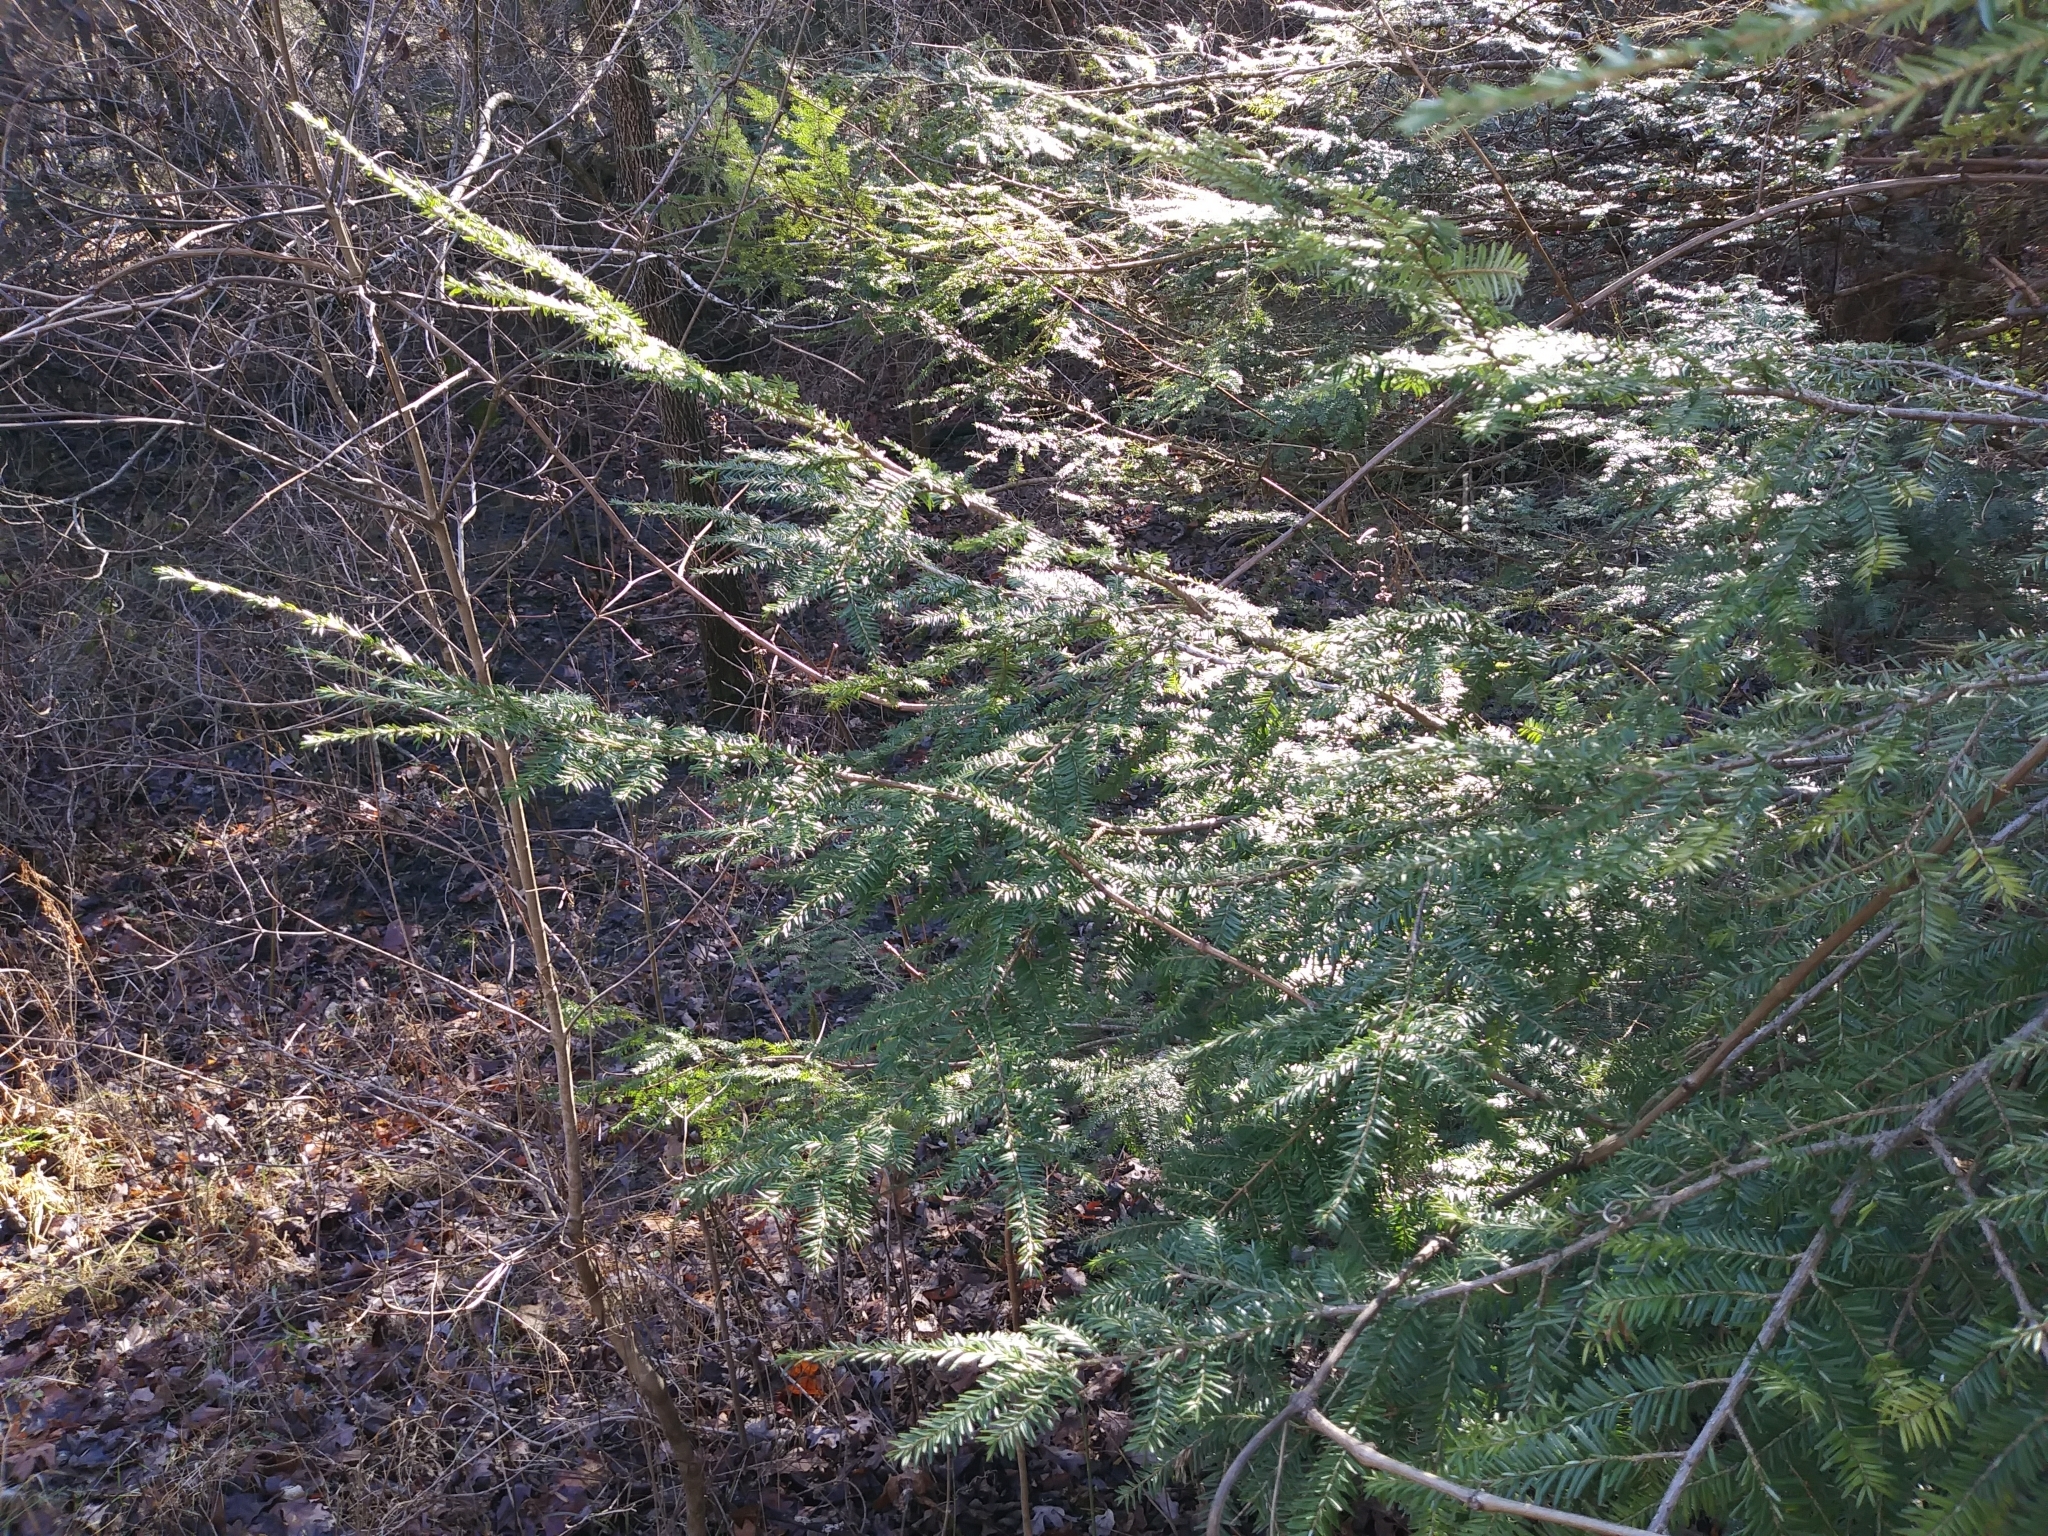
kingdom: Plantae
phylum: Tracheophyta
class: Pinopsida
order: Pinales
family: Pinaceae
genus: Tsuga
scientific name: Tsuga canadensis
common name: Eastern hemlock
